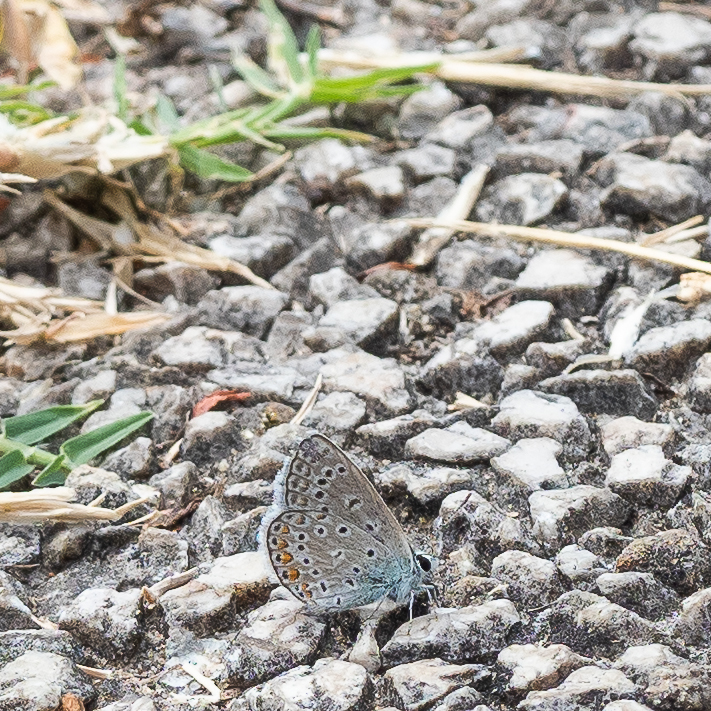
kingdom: Animalia
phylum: Arthropoda
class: Insecta
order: Lepidoptera
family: Lycaenidae
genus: Polyommatus
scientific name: Polyommatus icarus
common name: Common blue
